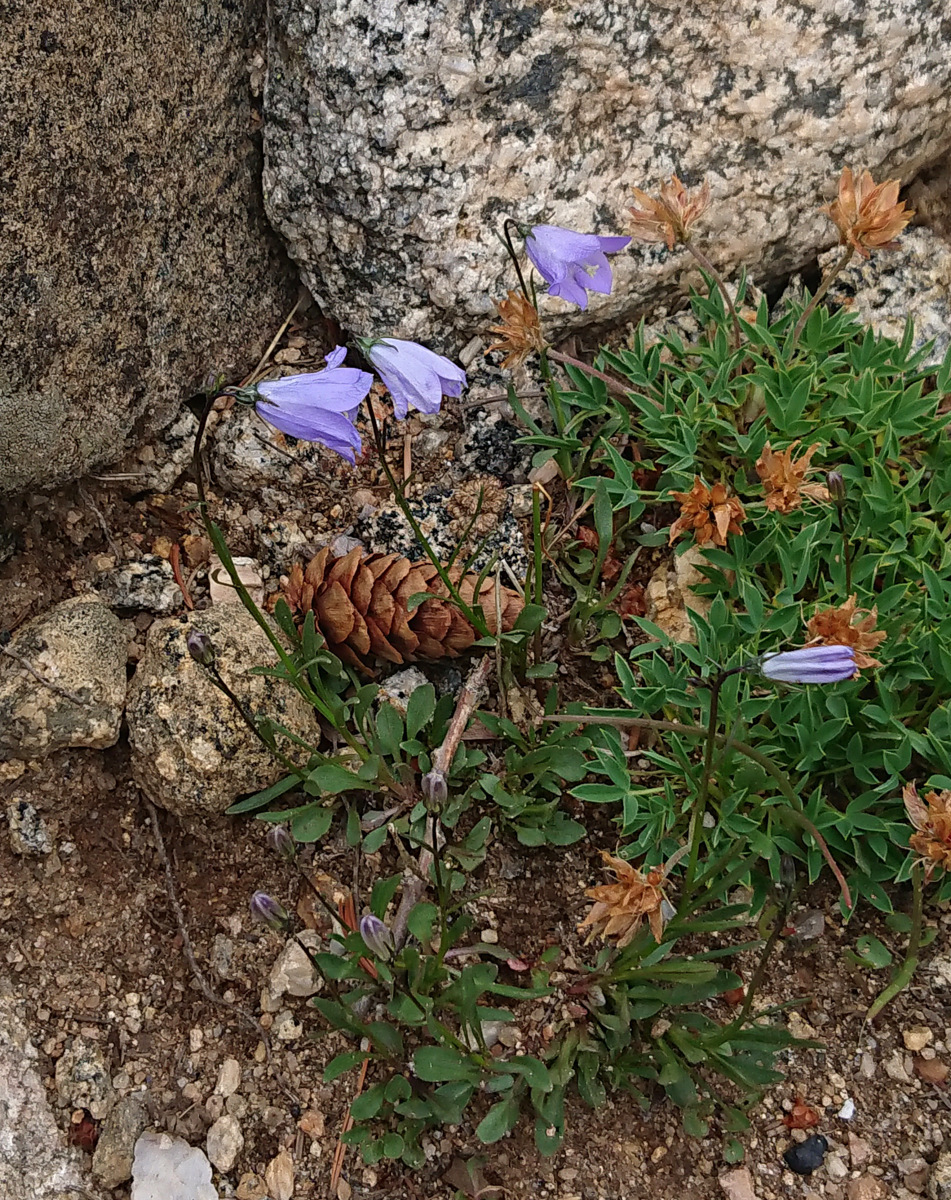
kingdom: Plantae
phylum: Tracheophyta
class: Magnoliopsida
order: Asterales
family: Campanulaceae
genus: Campanula
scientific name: Campanula petiolata
